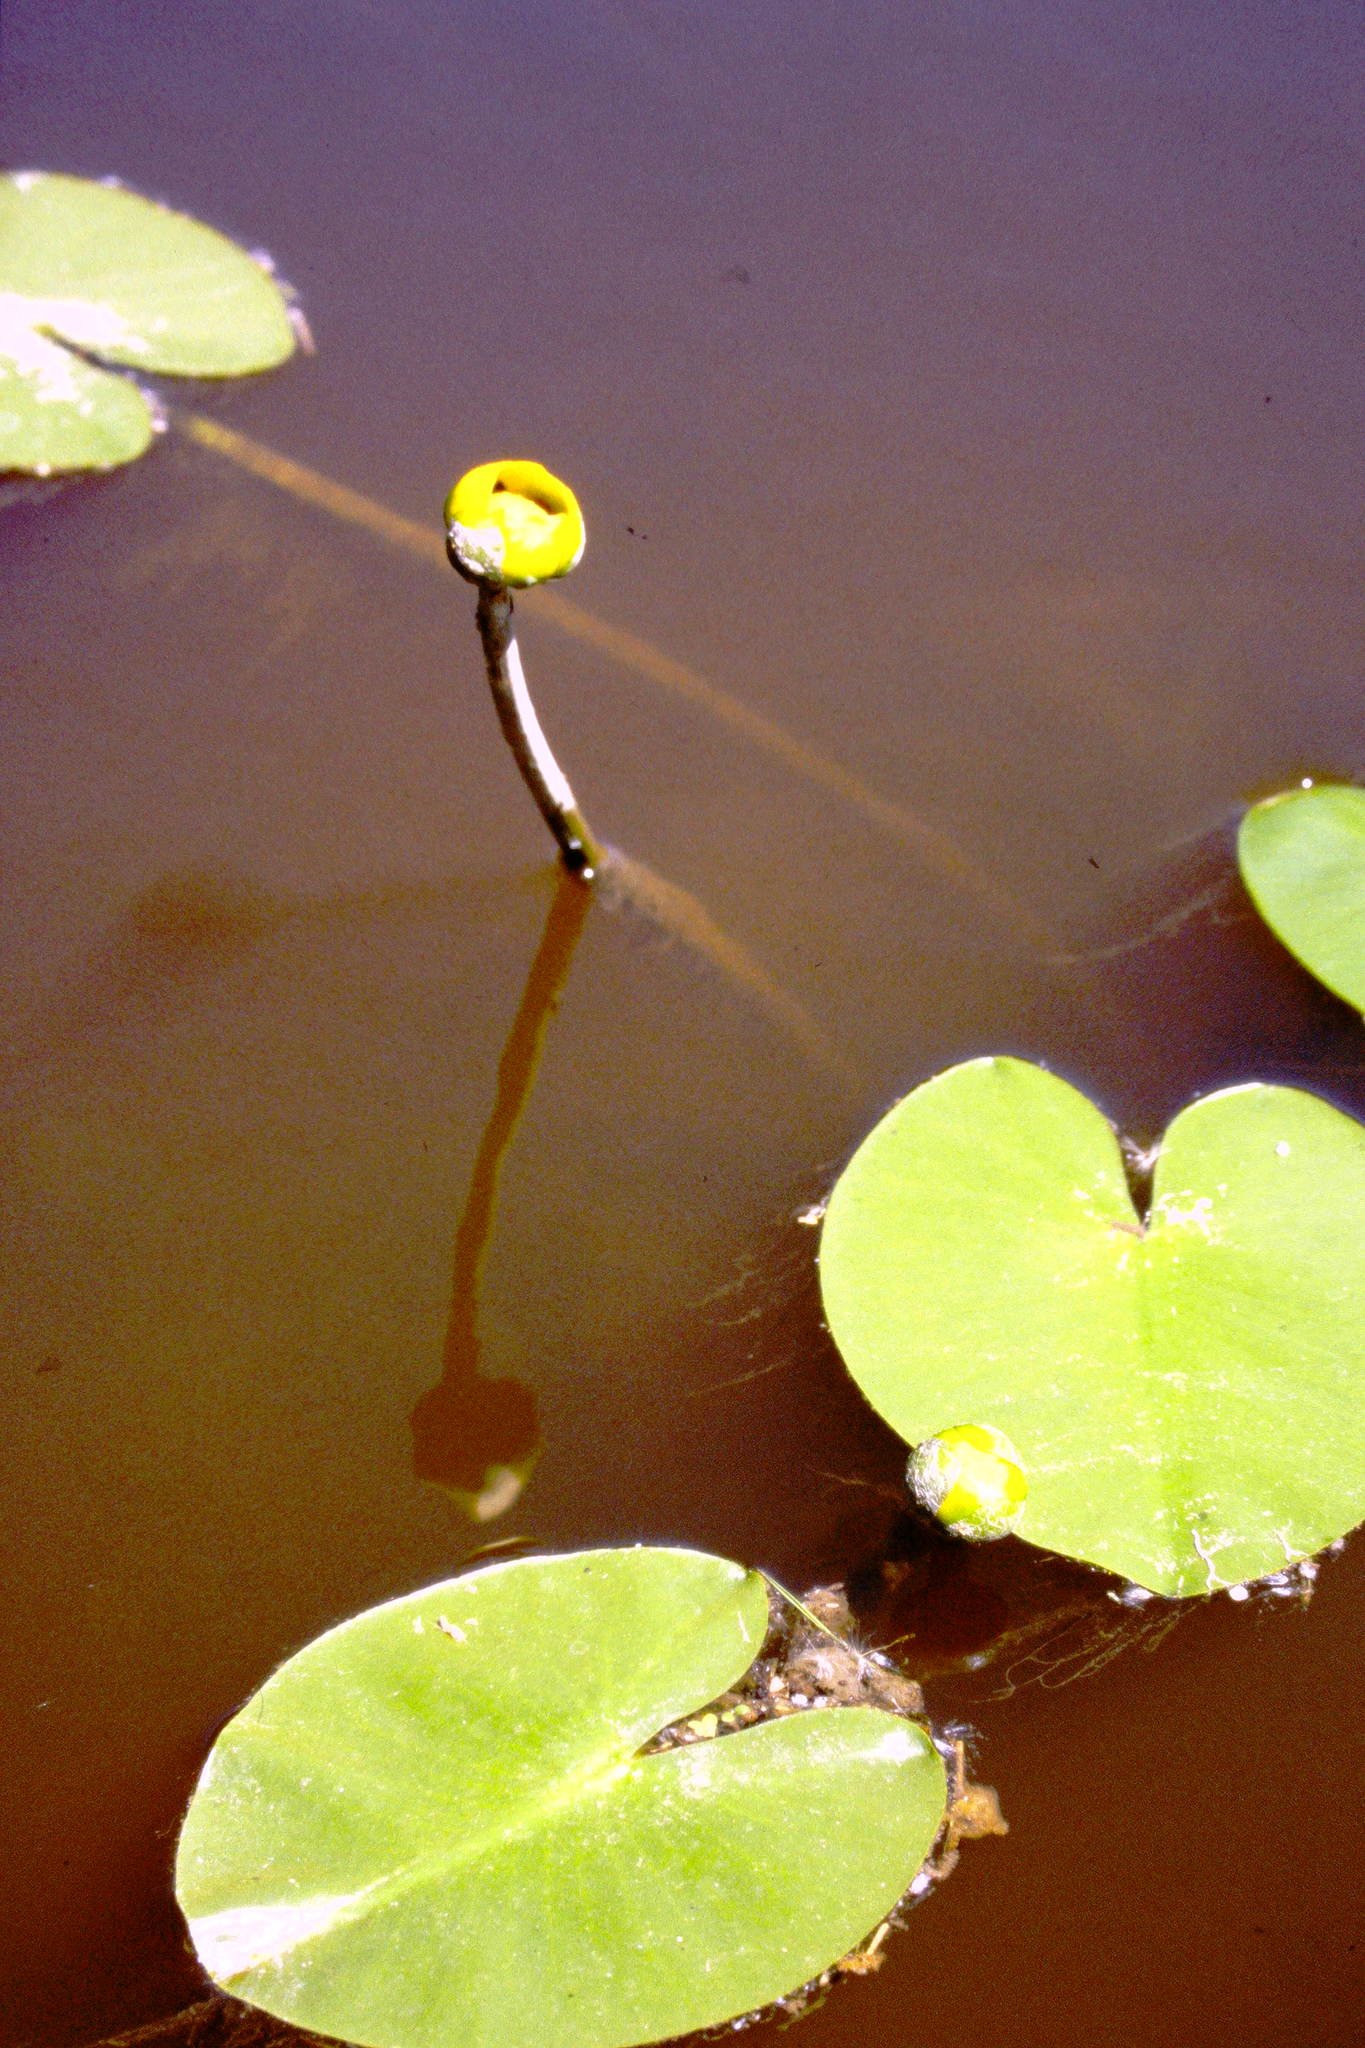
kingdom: Plantae
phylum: Tracheophyta
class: Magnoliopsida
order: Nymphaeales
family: Nymphaeaceae
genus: Nuphar
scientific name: Nuphar variegata
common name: Beaver-root
